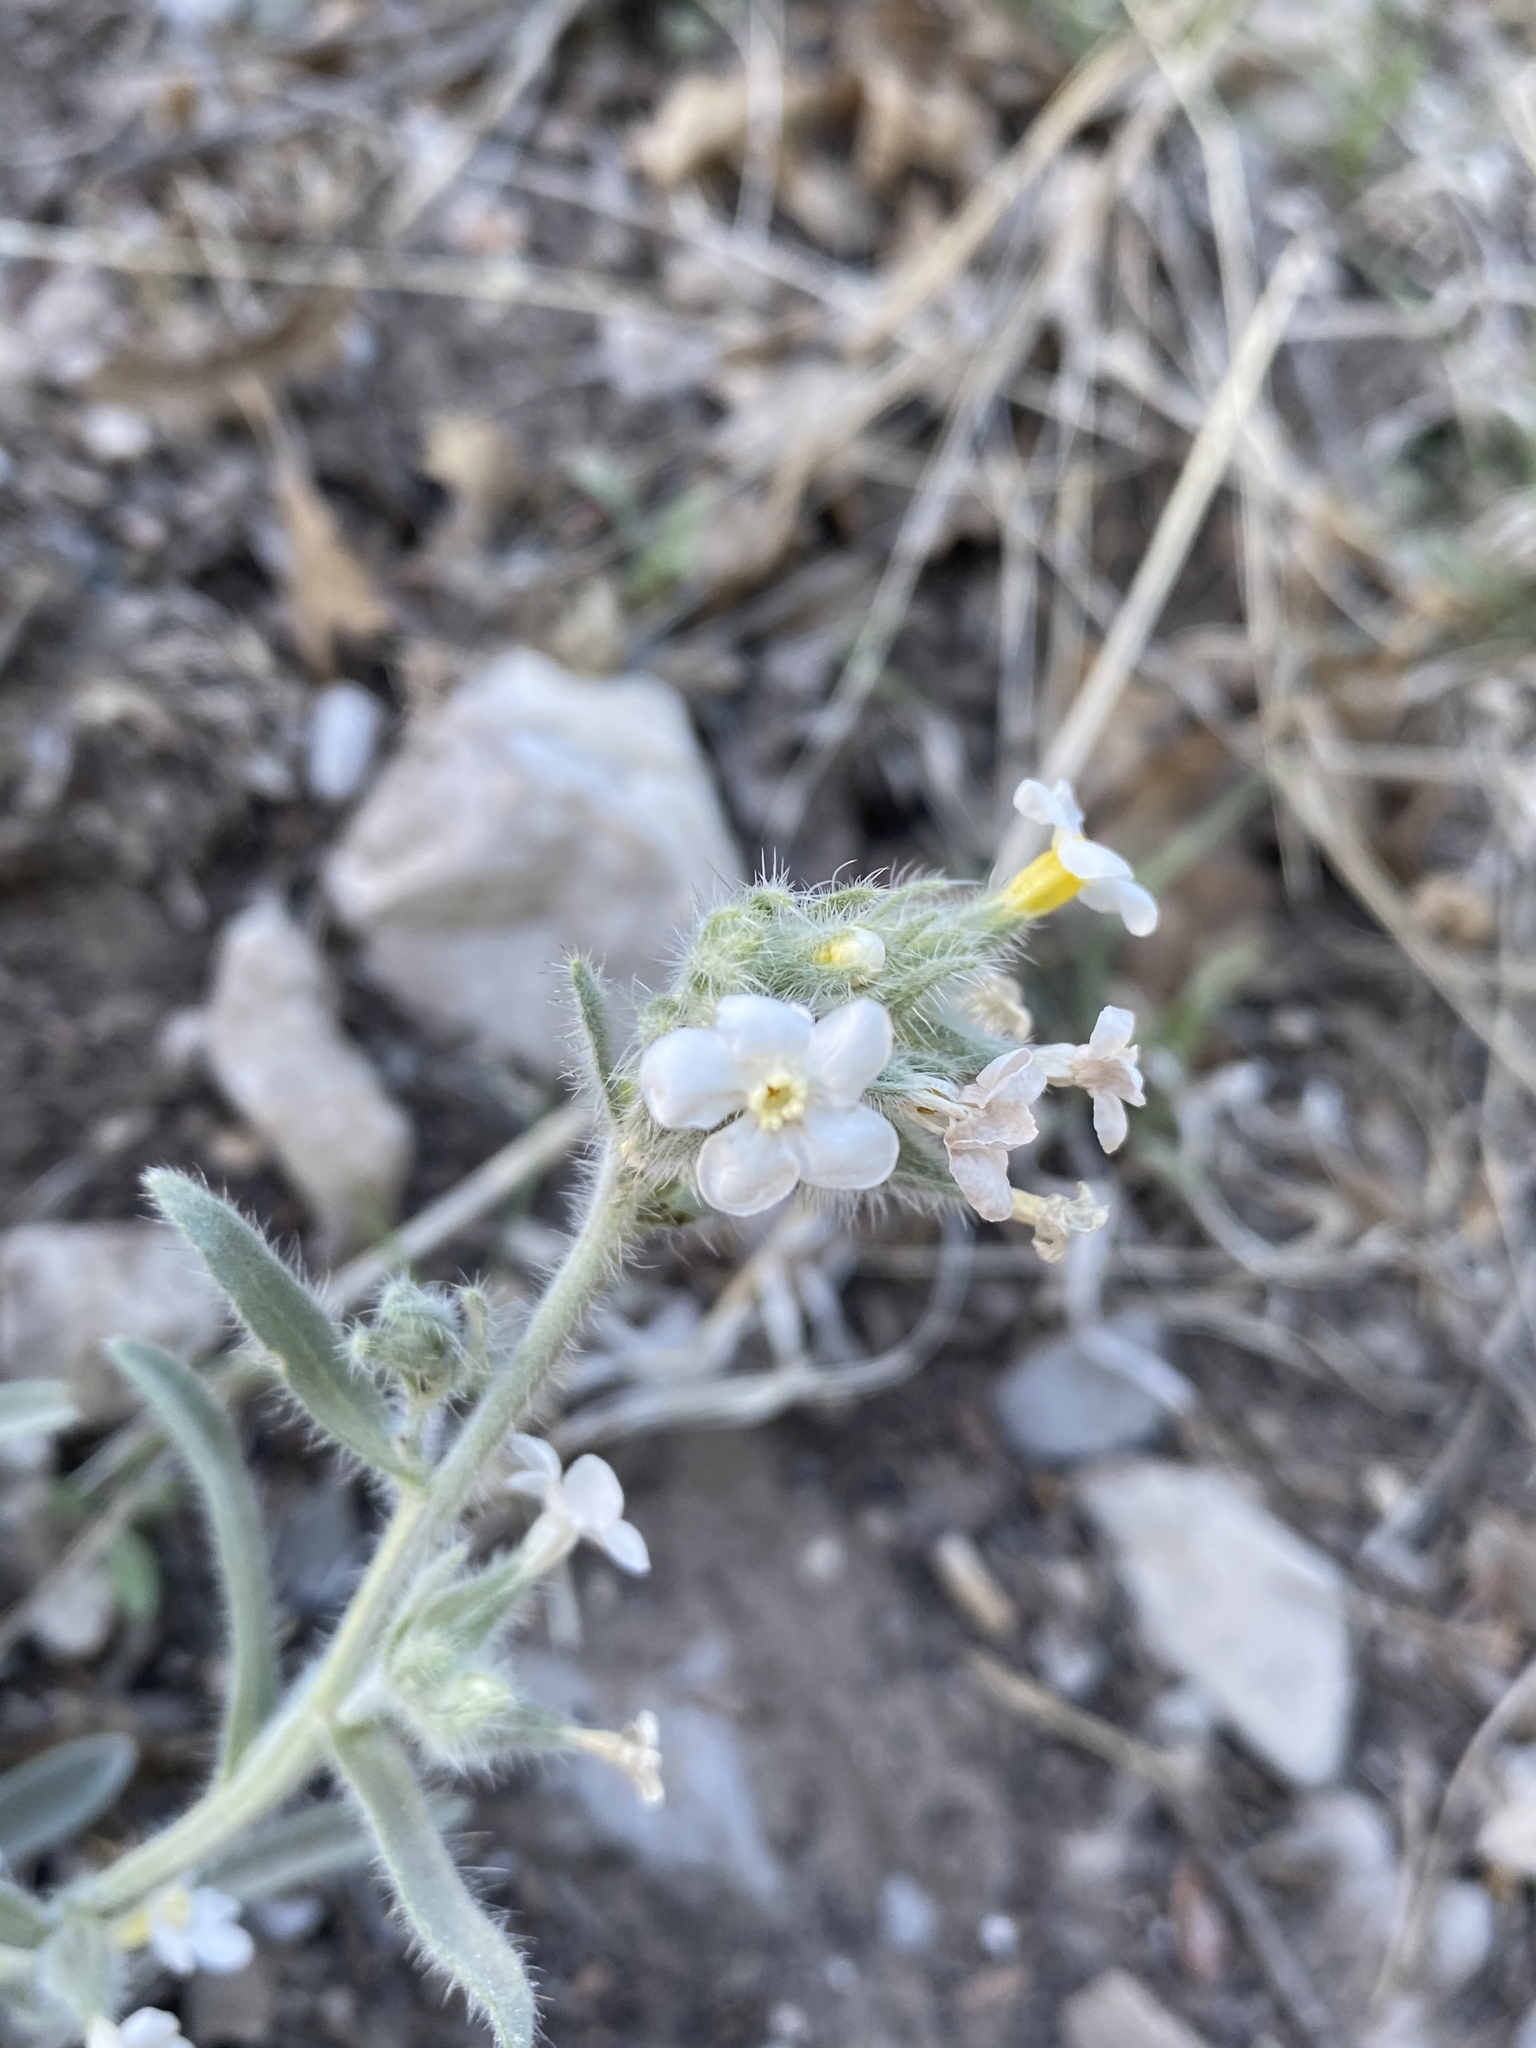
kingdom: Plantae
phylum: Tracheophyta
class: Magnoliopsida
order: Boraginales
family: Boraginaceae
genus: Oreocarya
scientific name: Oreocarya flavoculata
